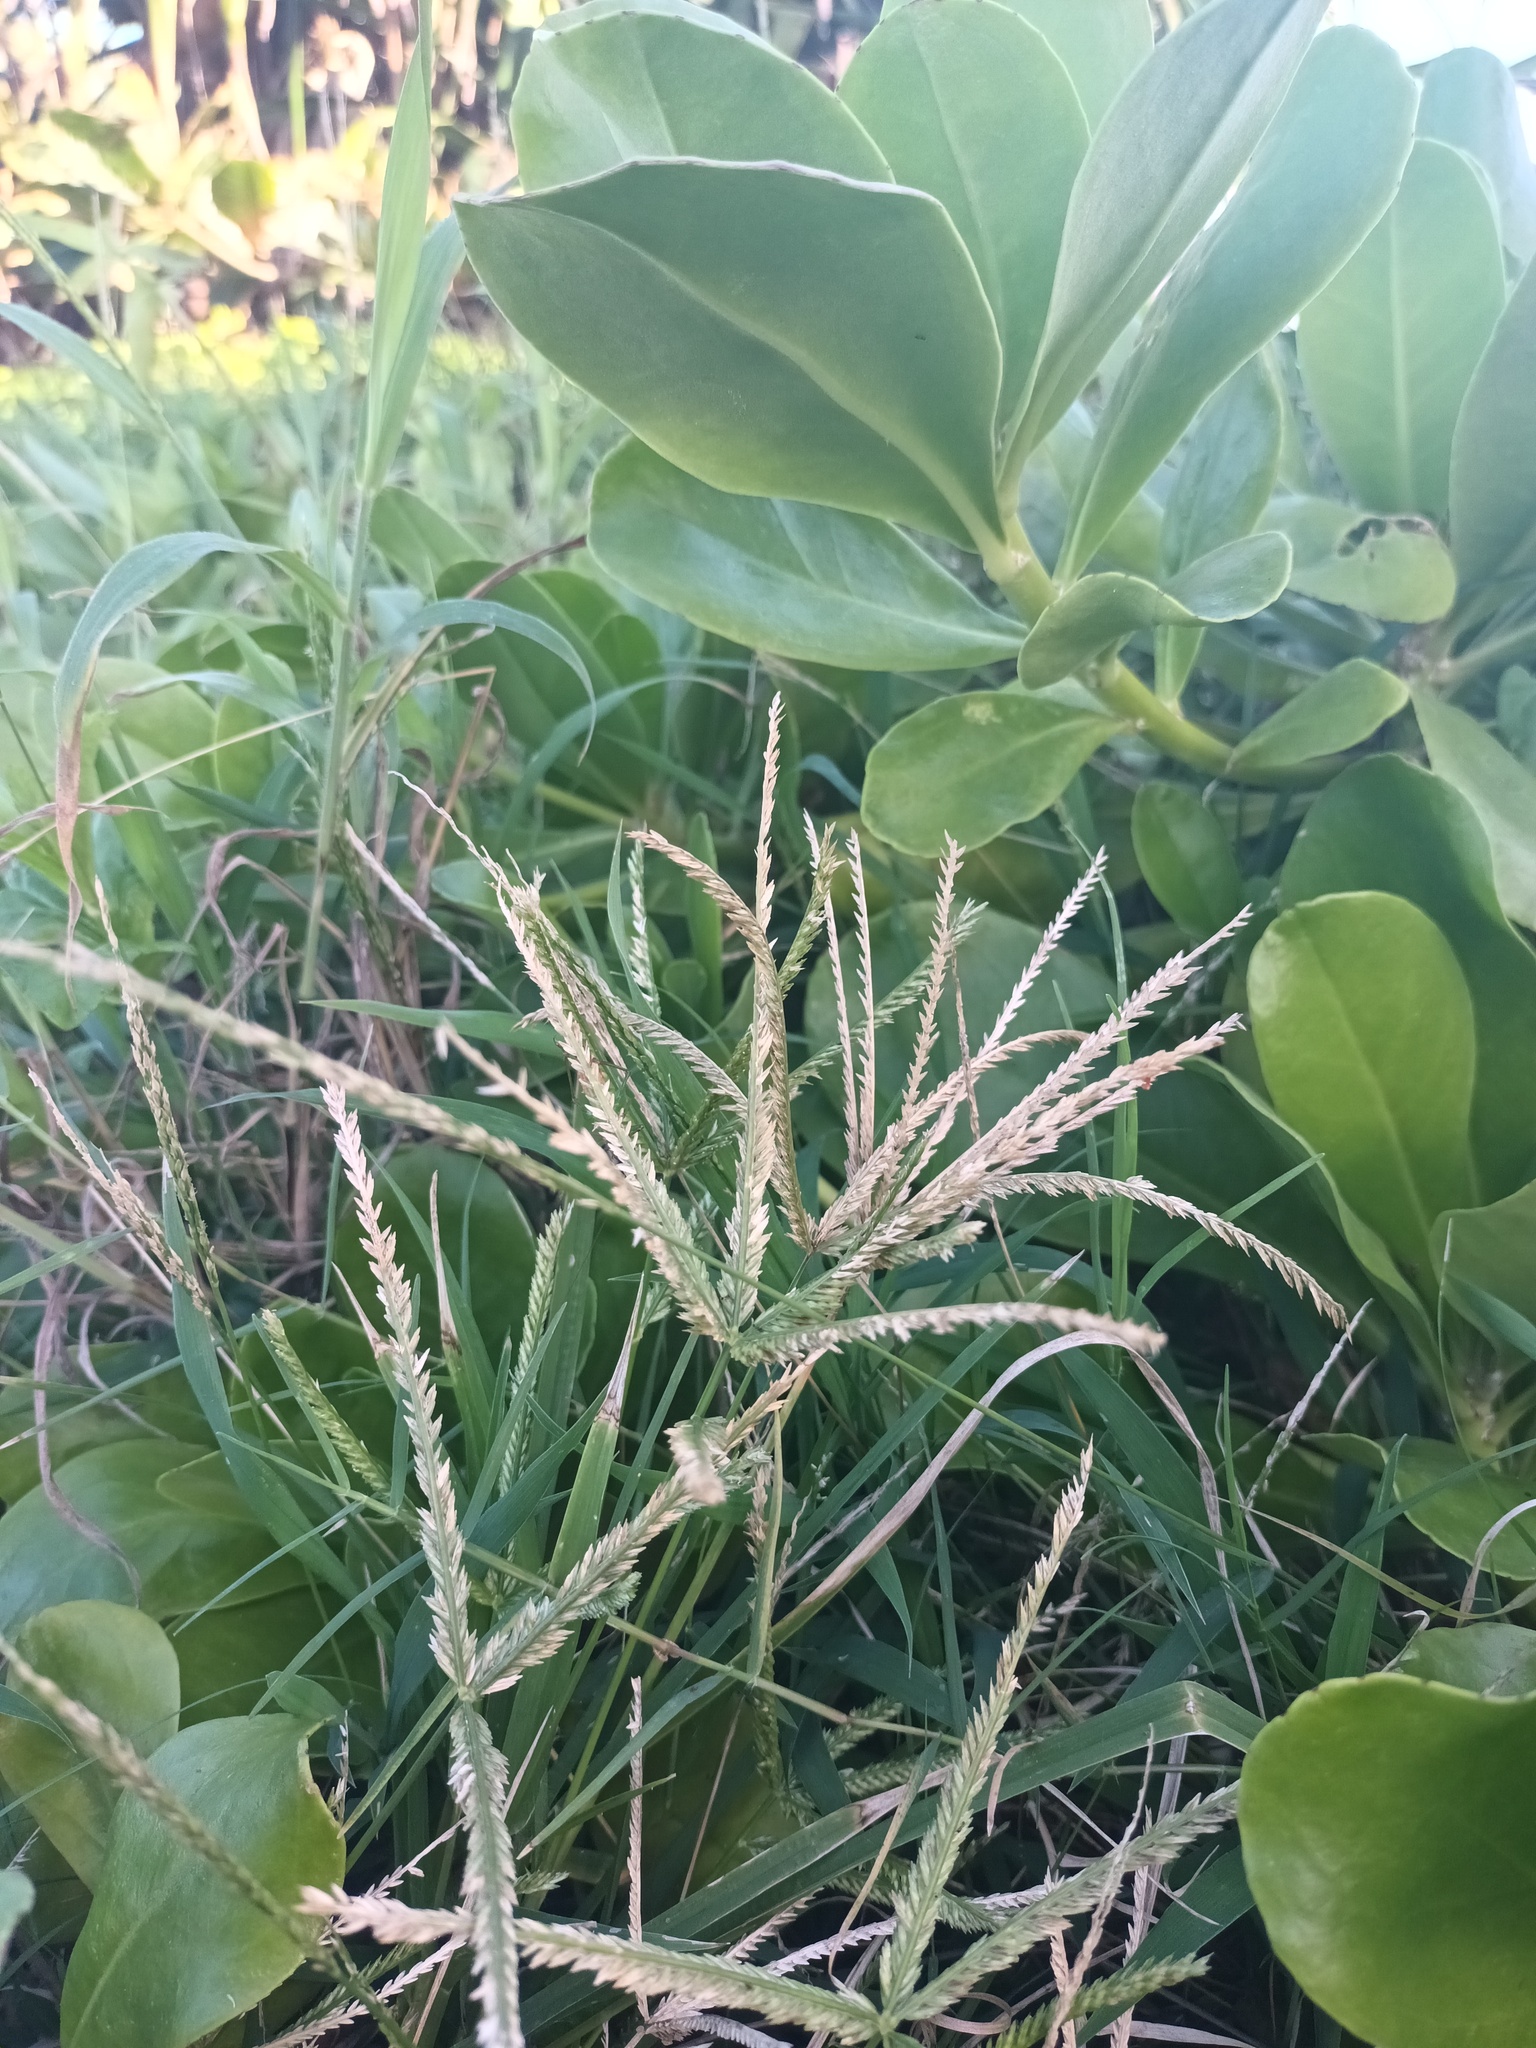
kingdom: Plantae
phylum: Tracheophyta
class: Liliopsida
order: Poales
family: Poaceae
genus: Eleusine
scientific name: Eleusine indica
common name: Yard-grass
